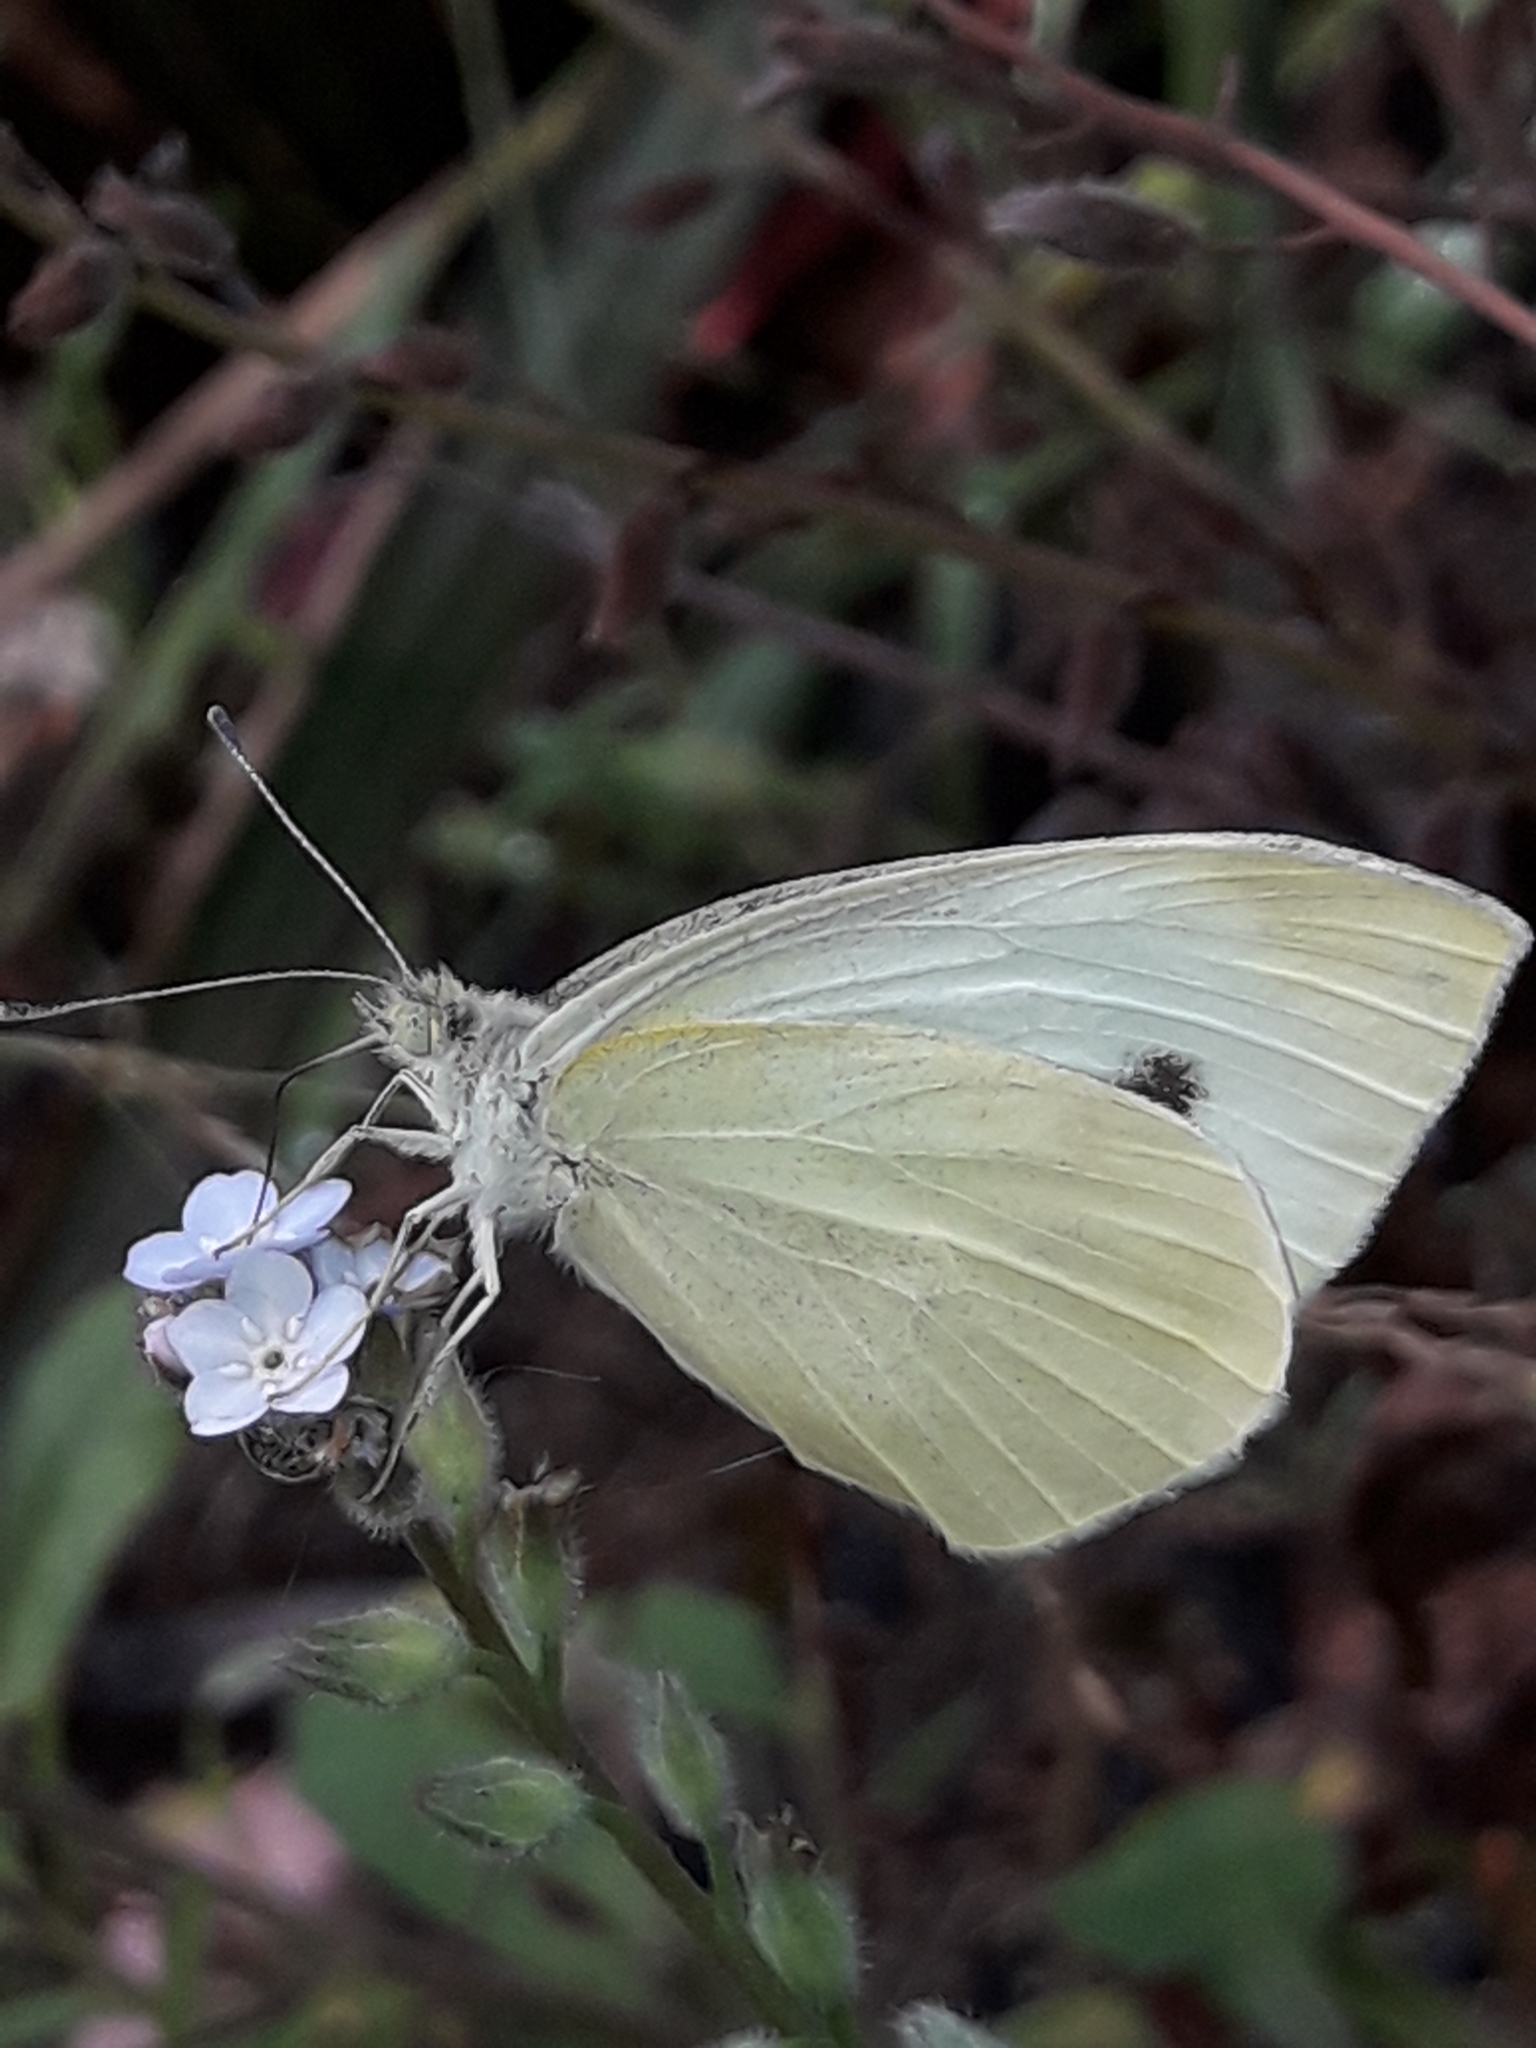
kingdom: Animalia
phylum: Arthropoda
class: Insecta
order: Lepidoptera
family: Pieridae
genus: Pieris
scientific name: Pieris rapae
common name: Small white
